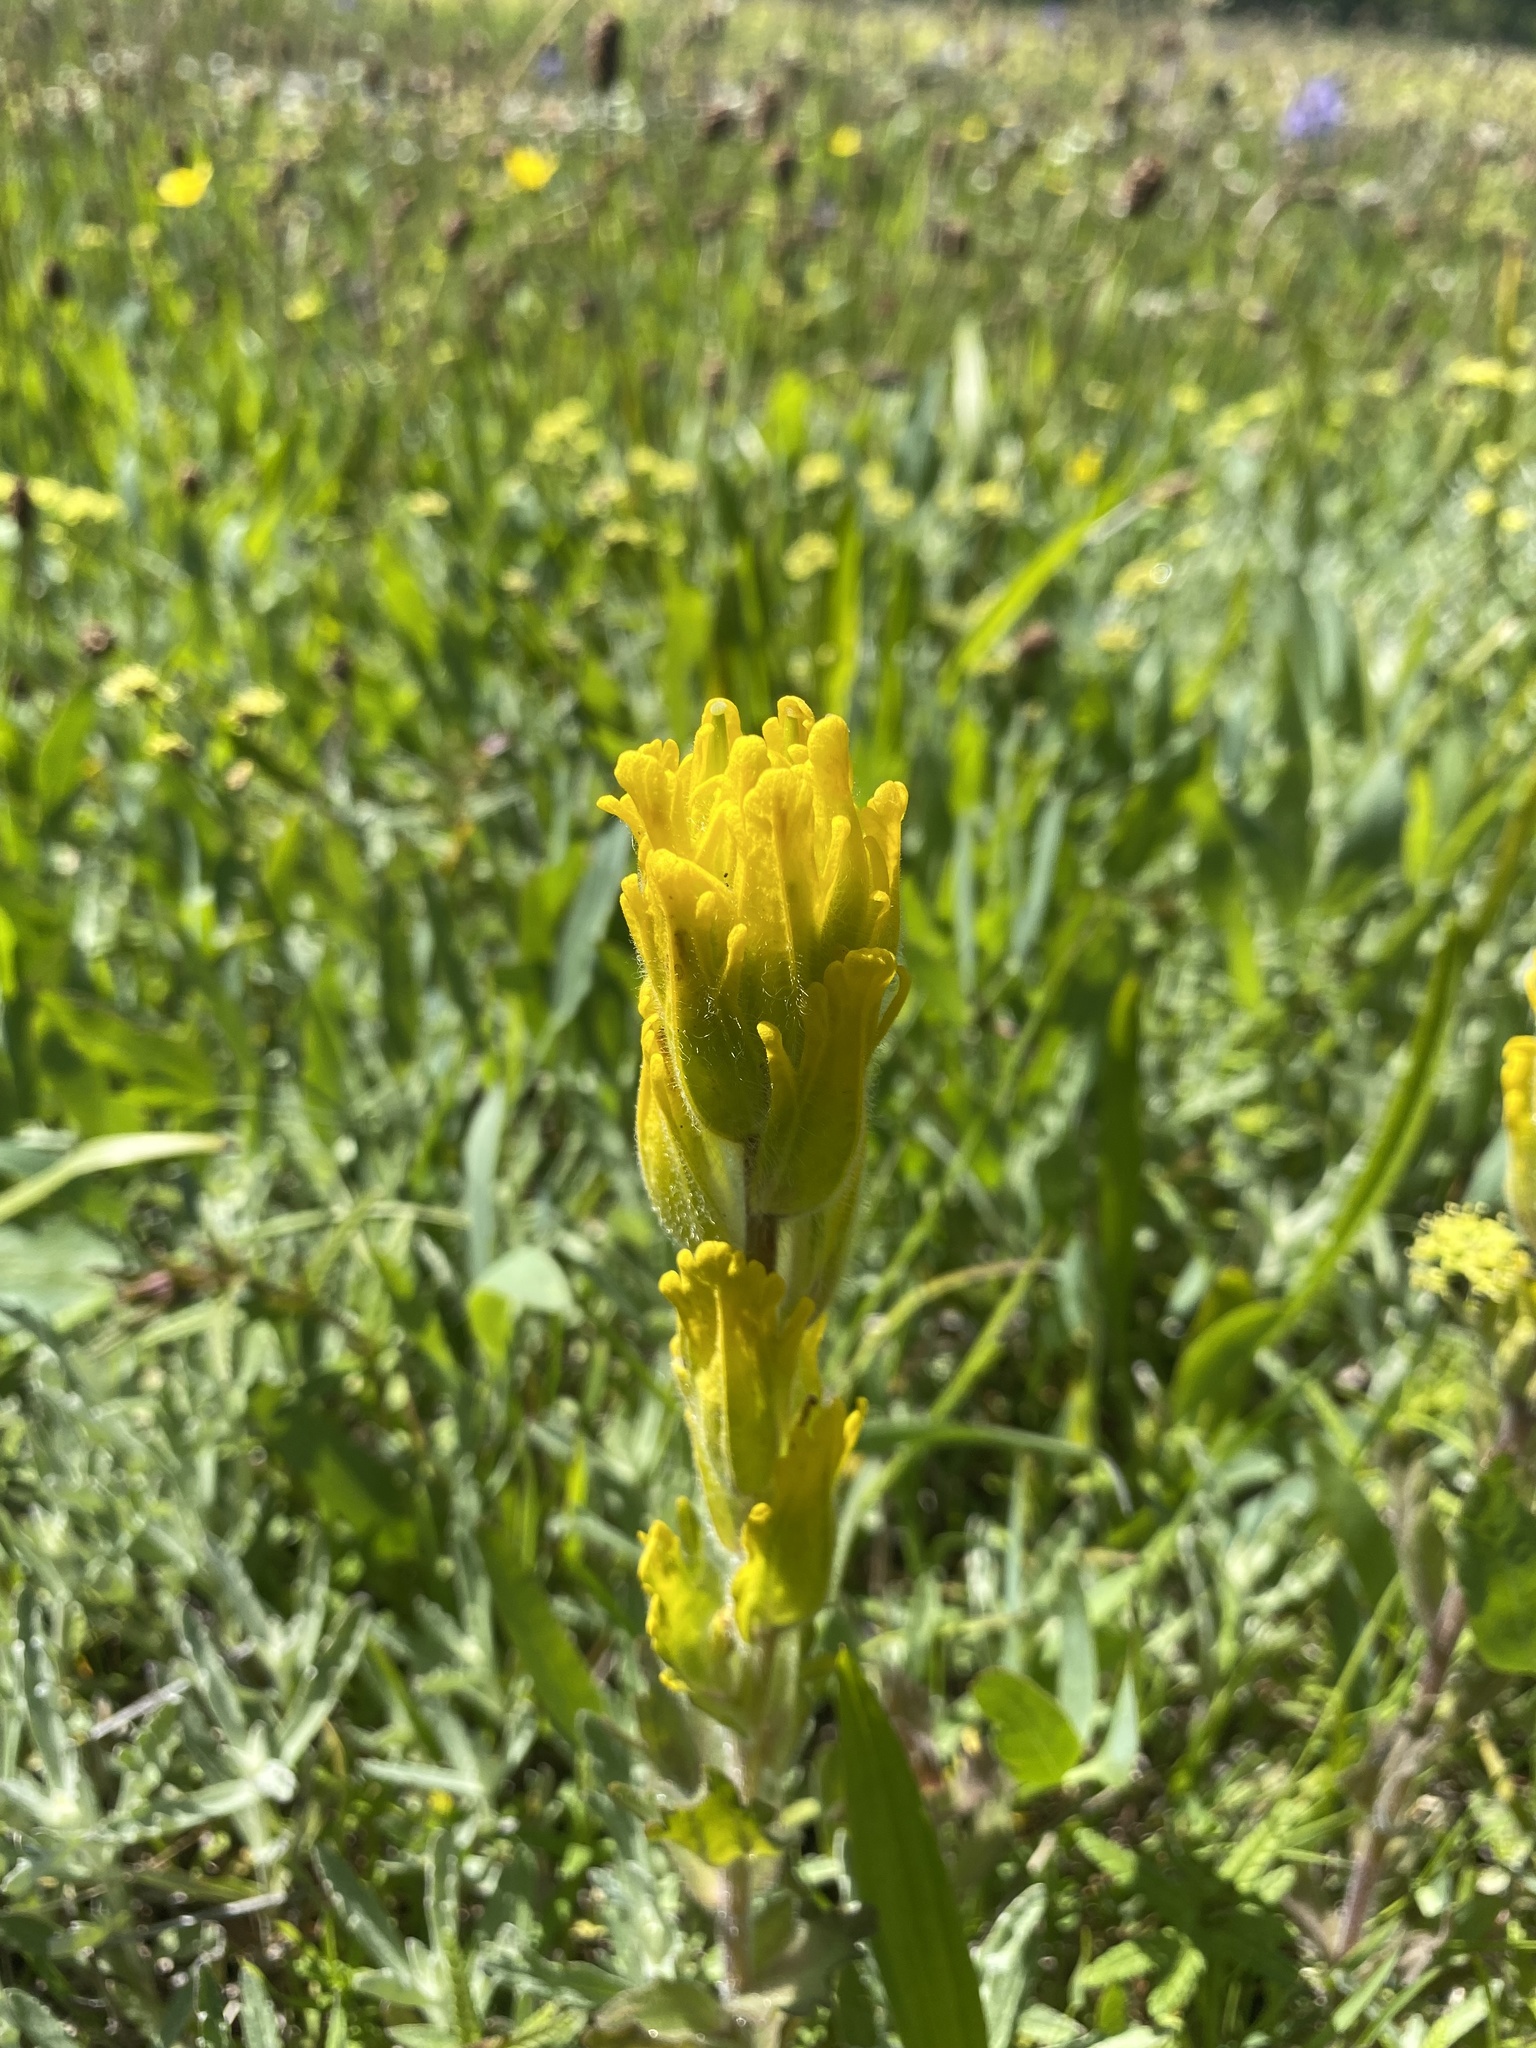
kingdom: Plantae
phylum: Tracheophyta
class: Magnoliopsida
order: Lamiales
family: Orobanchaceae
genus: Castilleja
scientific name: Castilleja levisecta
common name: Golden paintbrush
